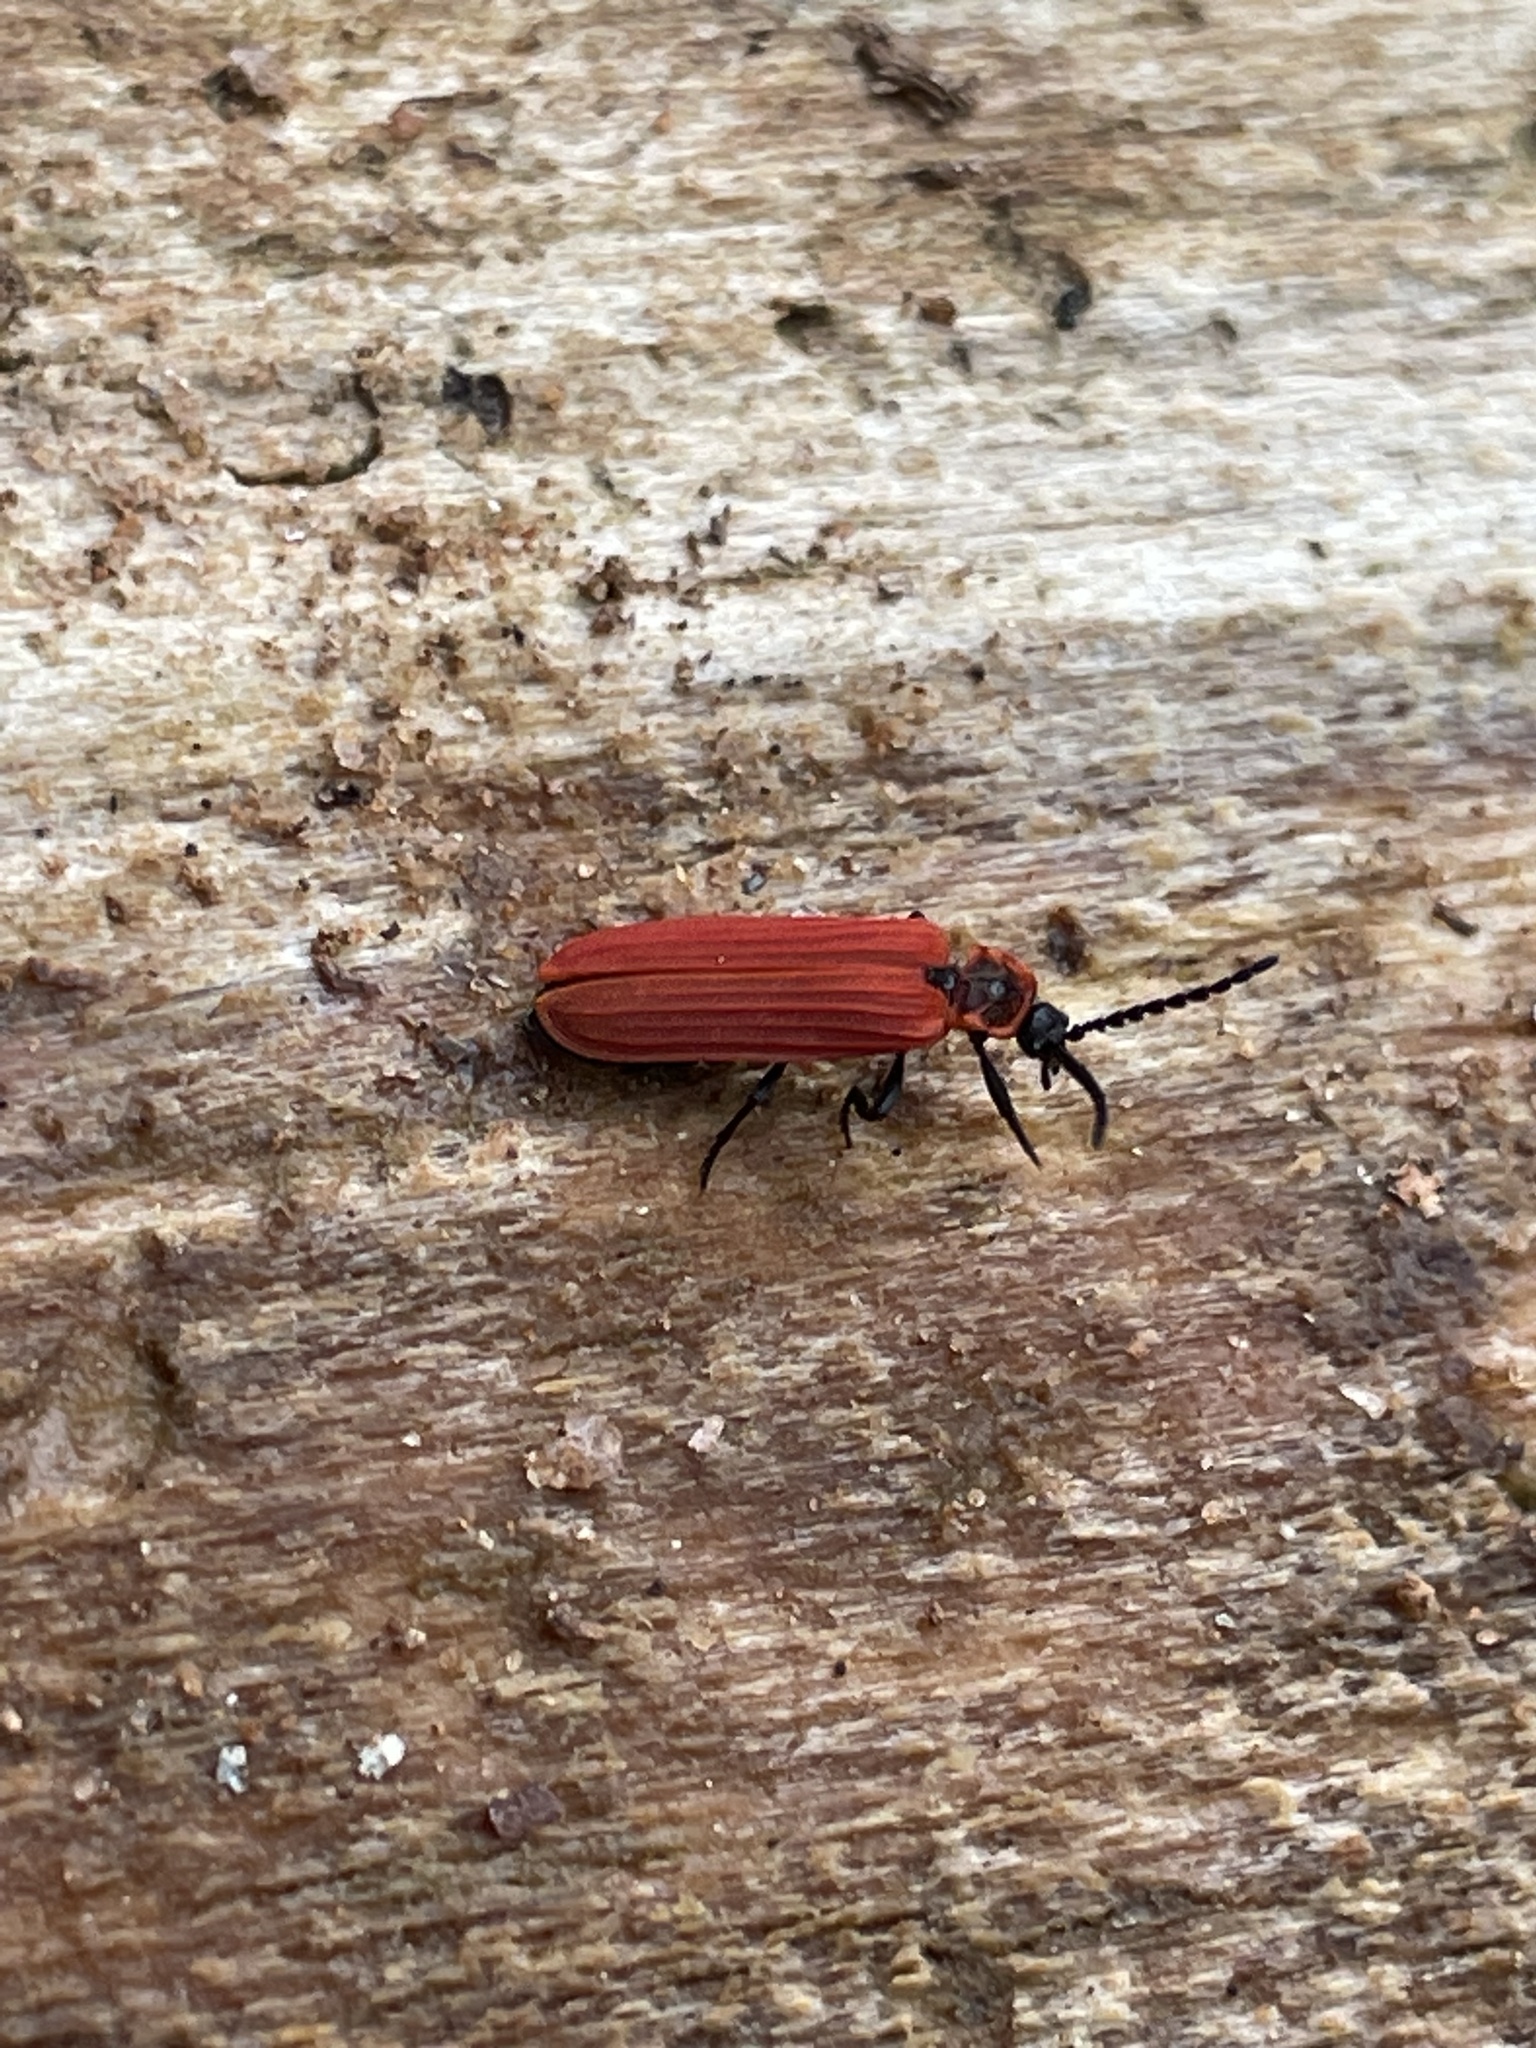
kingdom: Animalia
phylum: Arthropoda
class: Insecta
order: Coleoptera
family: Lycidae
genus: Dictyoptera
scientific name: Dictyoptera aurora
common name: Golden net-winged beetle
